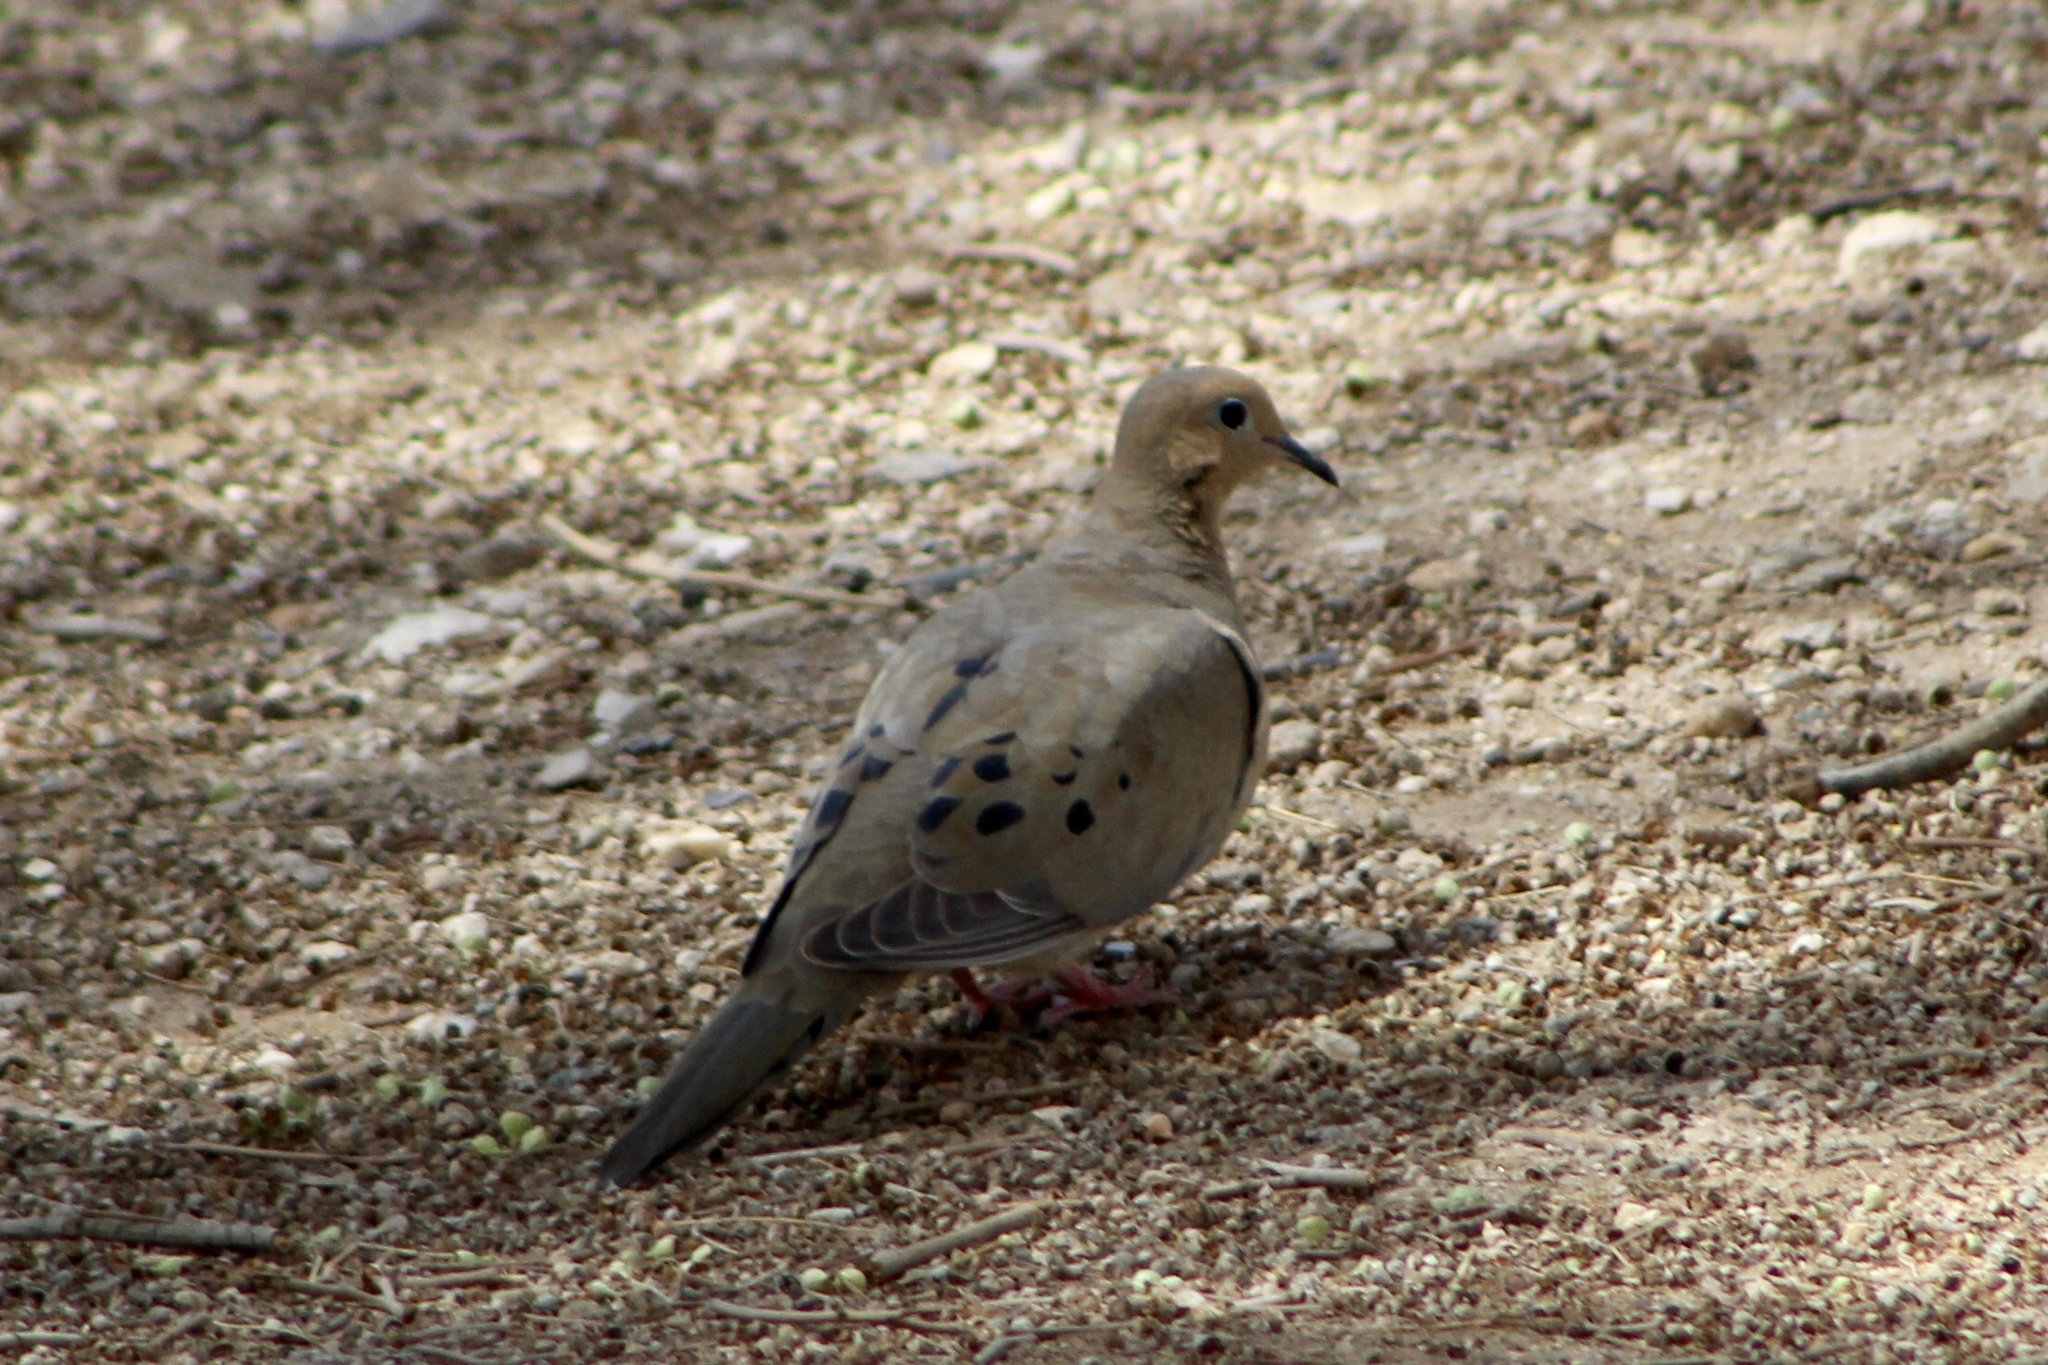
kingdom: Animalia
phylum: Chordata
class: Aves
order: Columbiformes
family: Columbidae
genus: Zenaida
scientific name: Zenaida macroura
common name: Mourning dove
